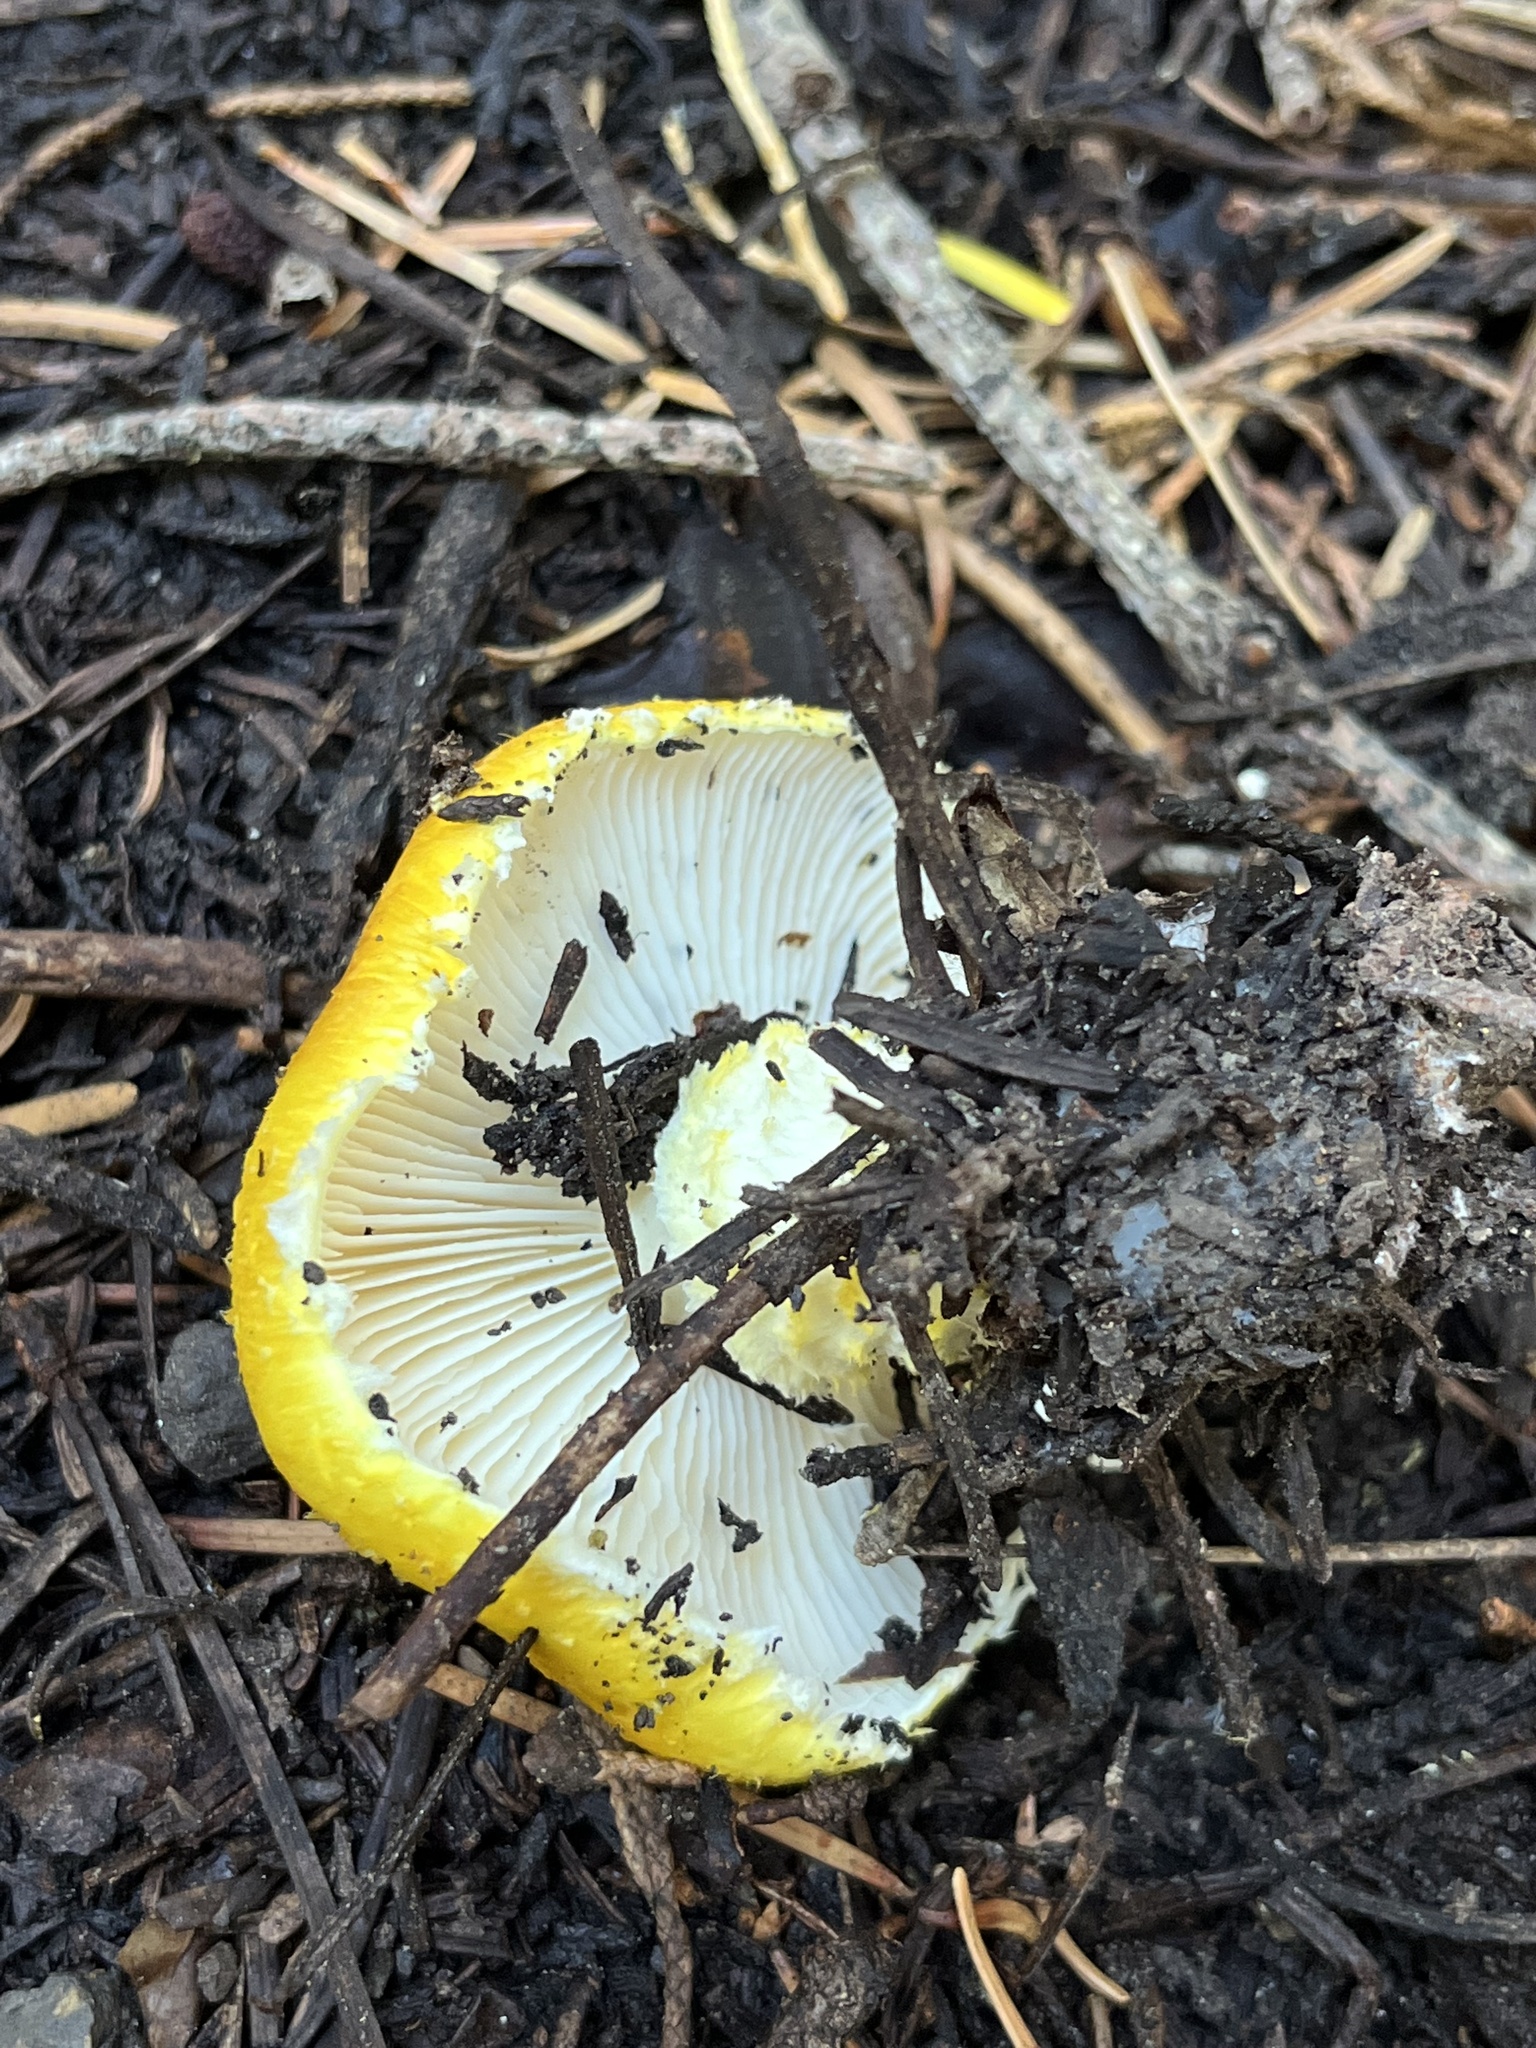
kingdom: Fungi
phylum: Basidiomycota
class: Agaricomycetes
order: Agaricales
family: Agaricaceae
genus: Floccularia
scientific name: Floccularia albolanaripes
